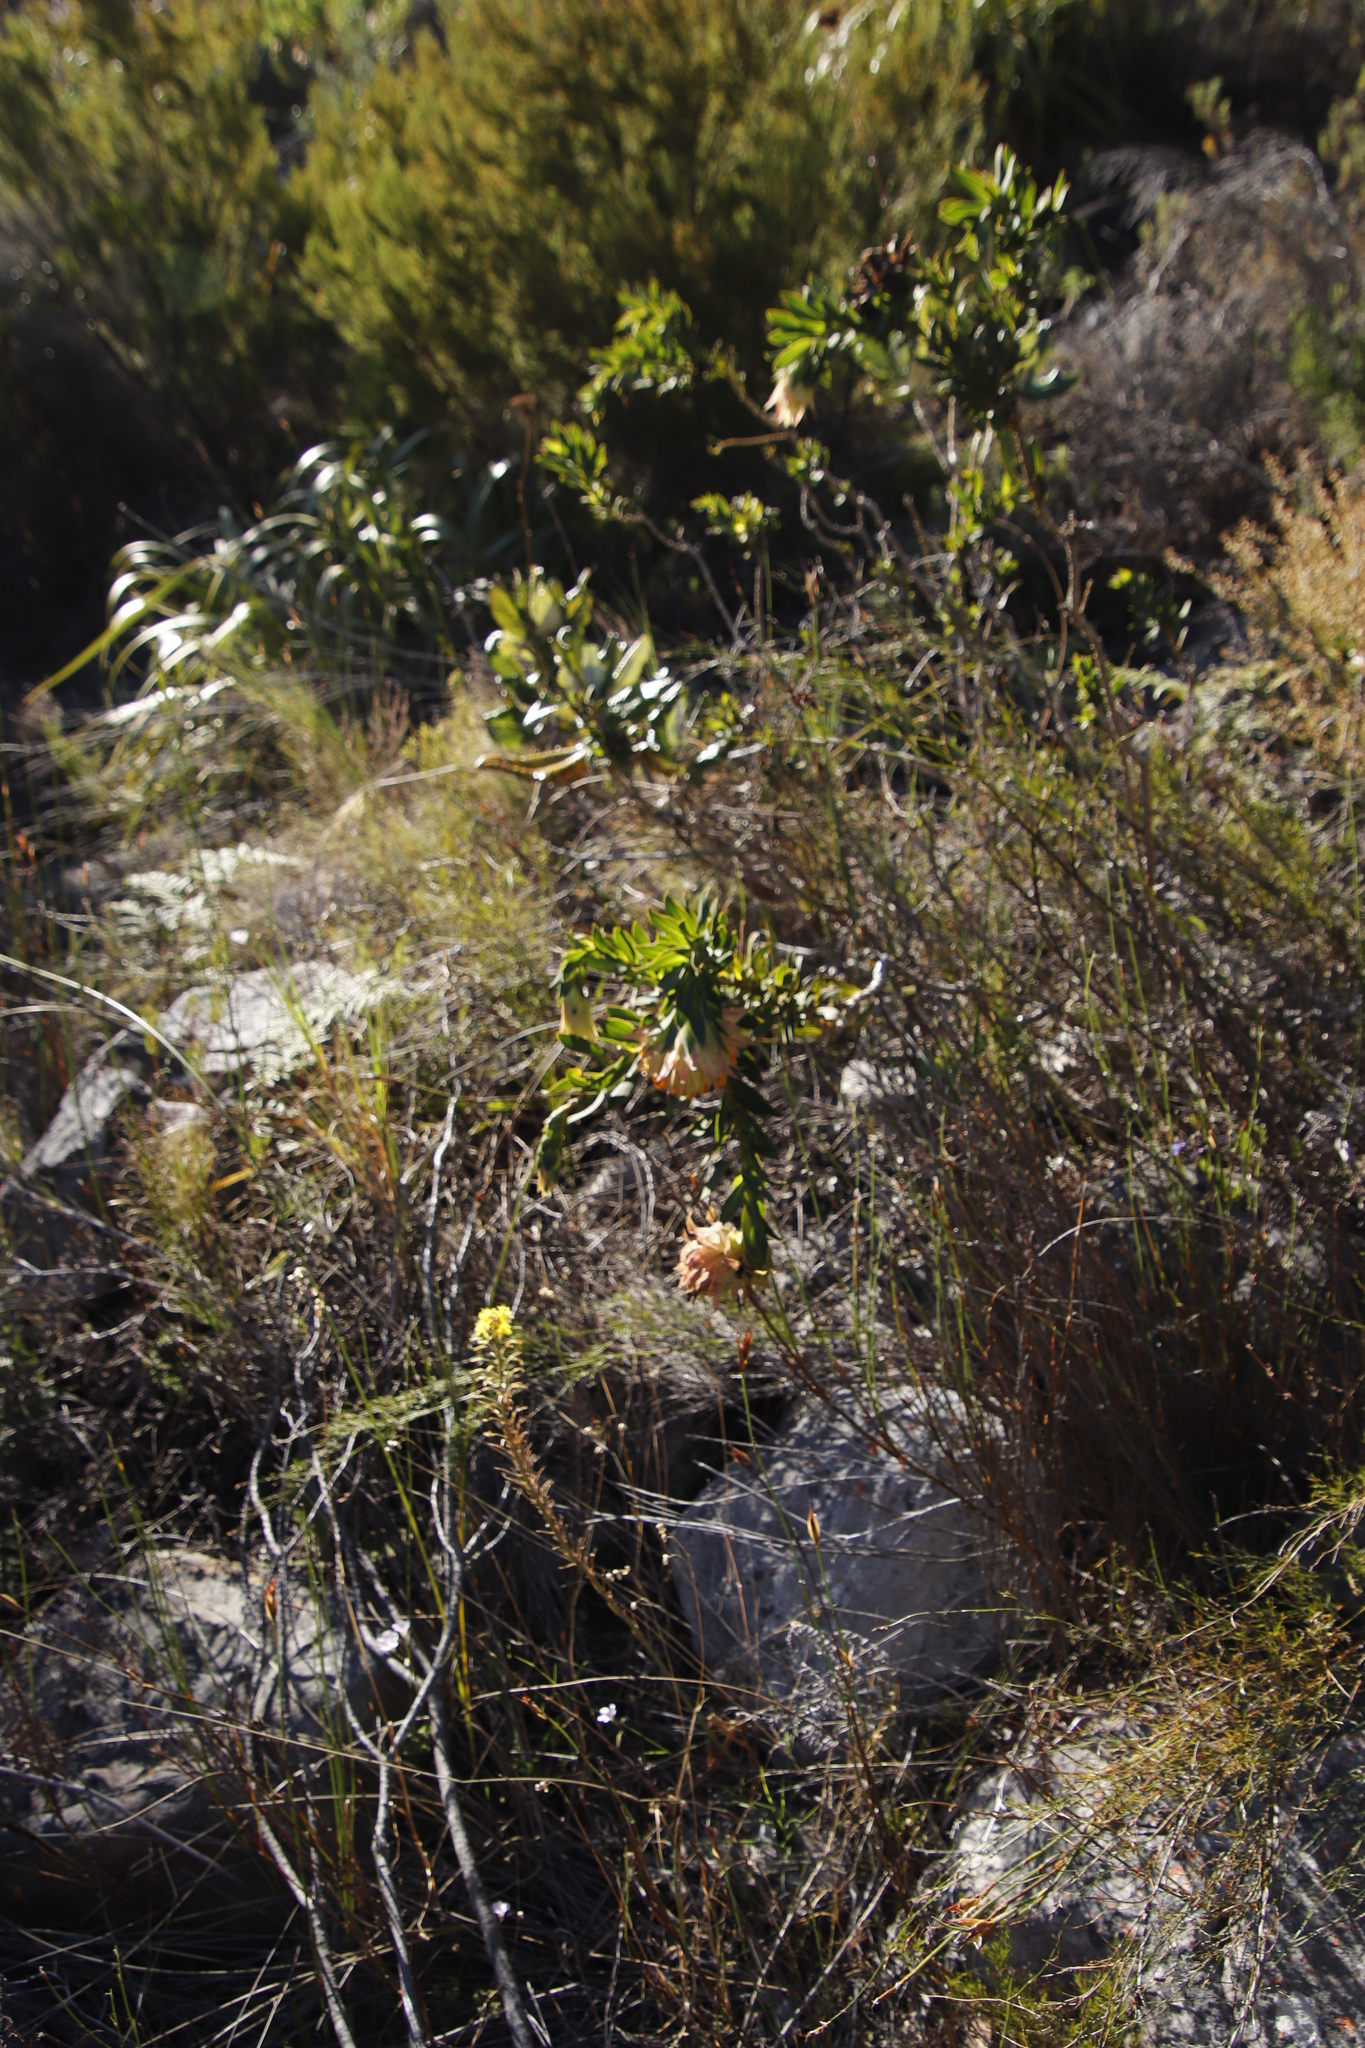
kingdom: Plantae
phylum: Tracheophyta
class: Magnoliopsida
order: Fabales
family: Fabaceae
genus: Liparia
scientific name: Liparia splendens
